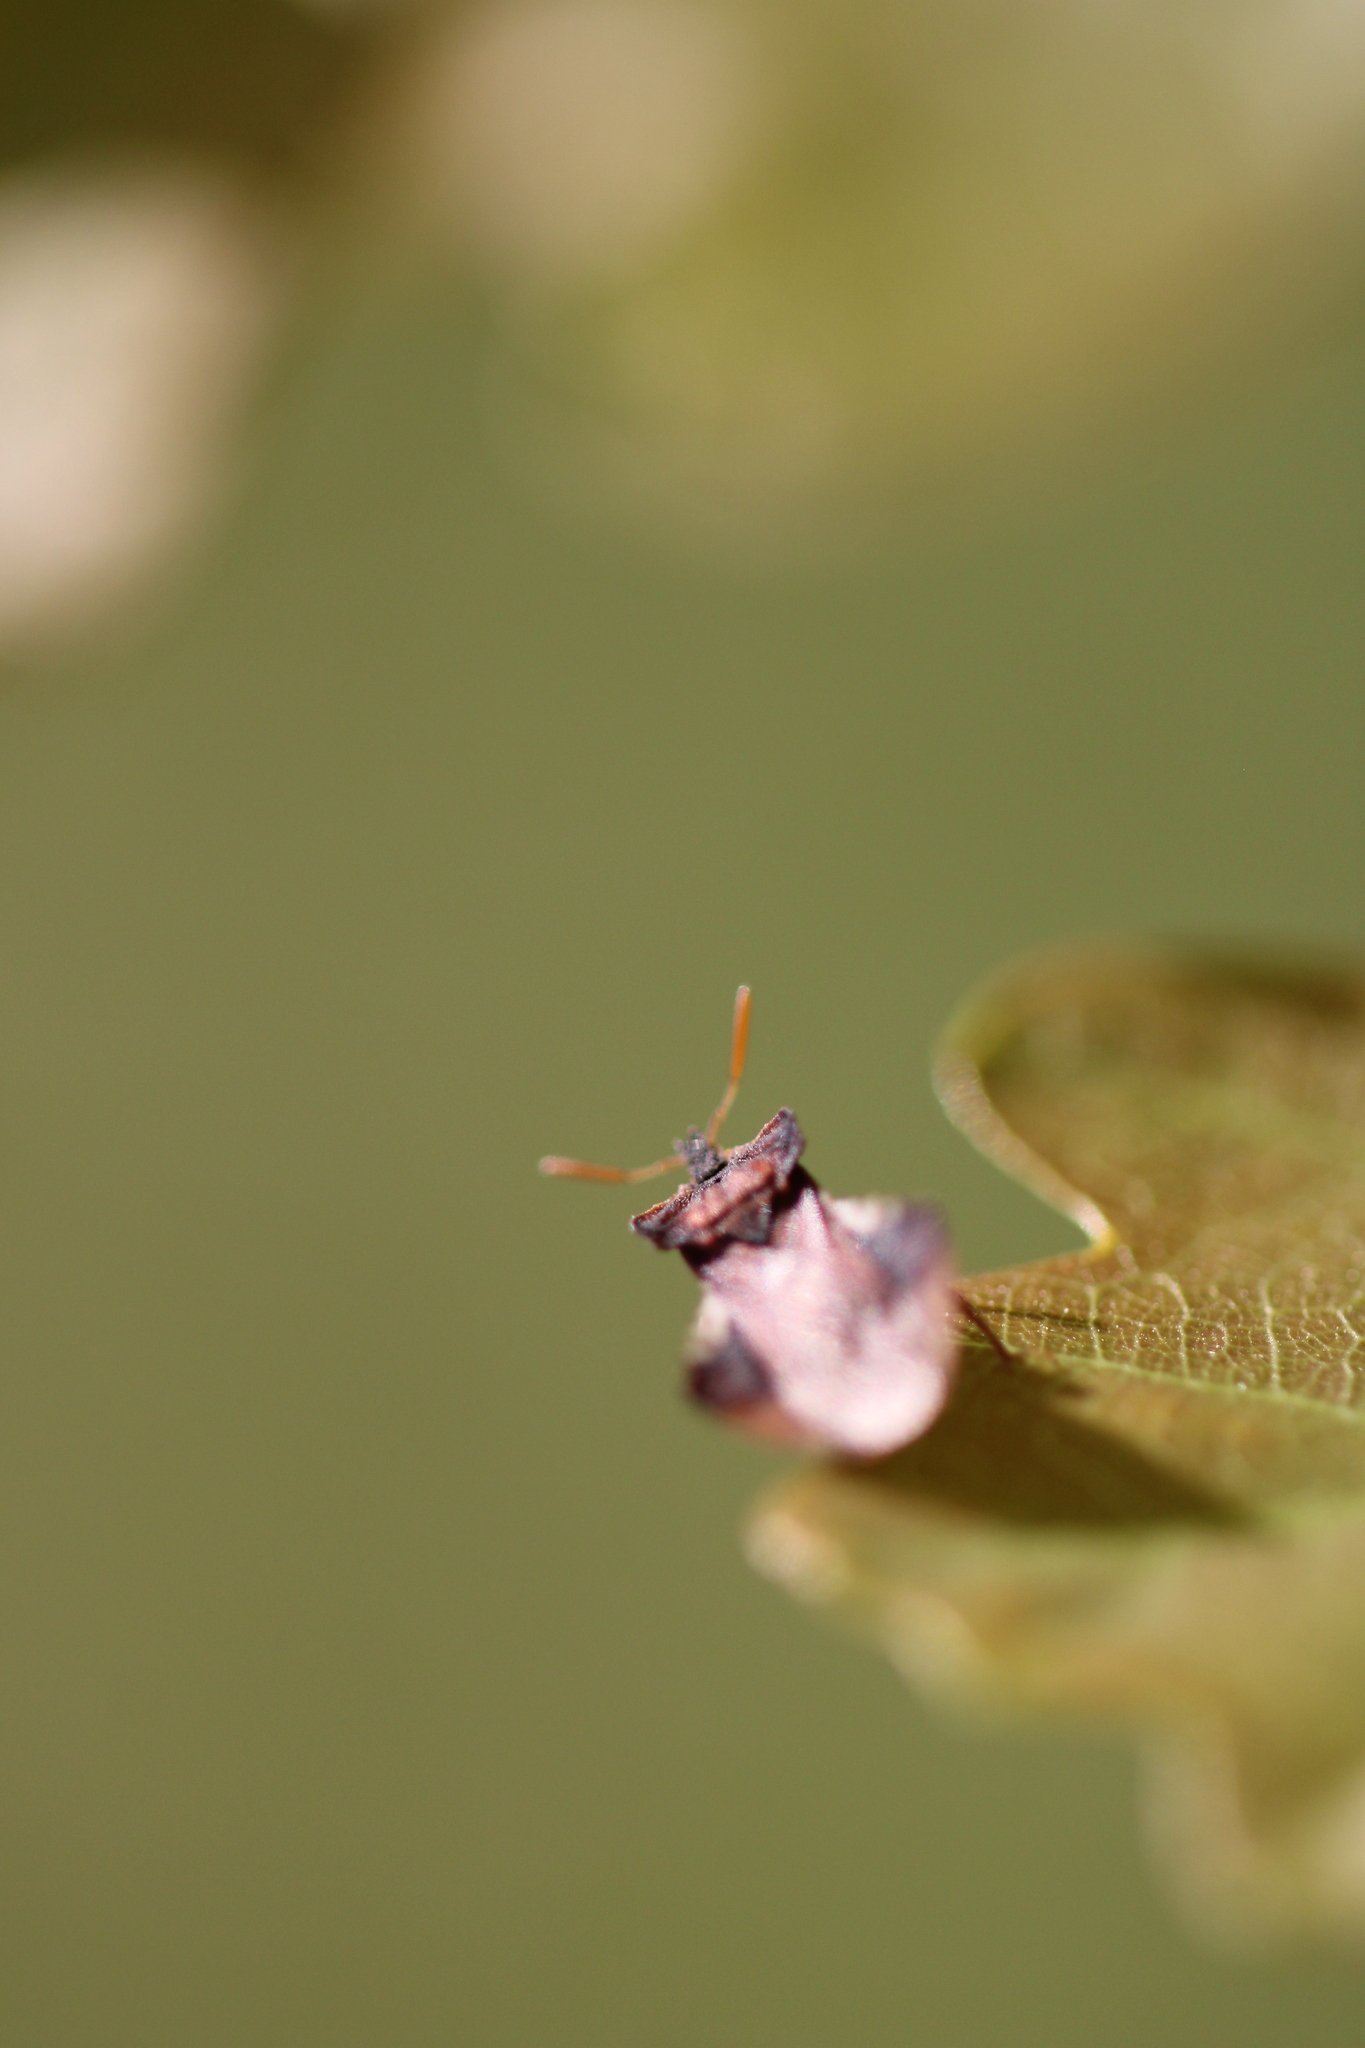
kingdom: Animalia
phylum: Arthropoda
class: Insecta
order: Hemiptera
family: Reduviidae
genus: Phymata
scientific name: Phymata crassipes
